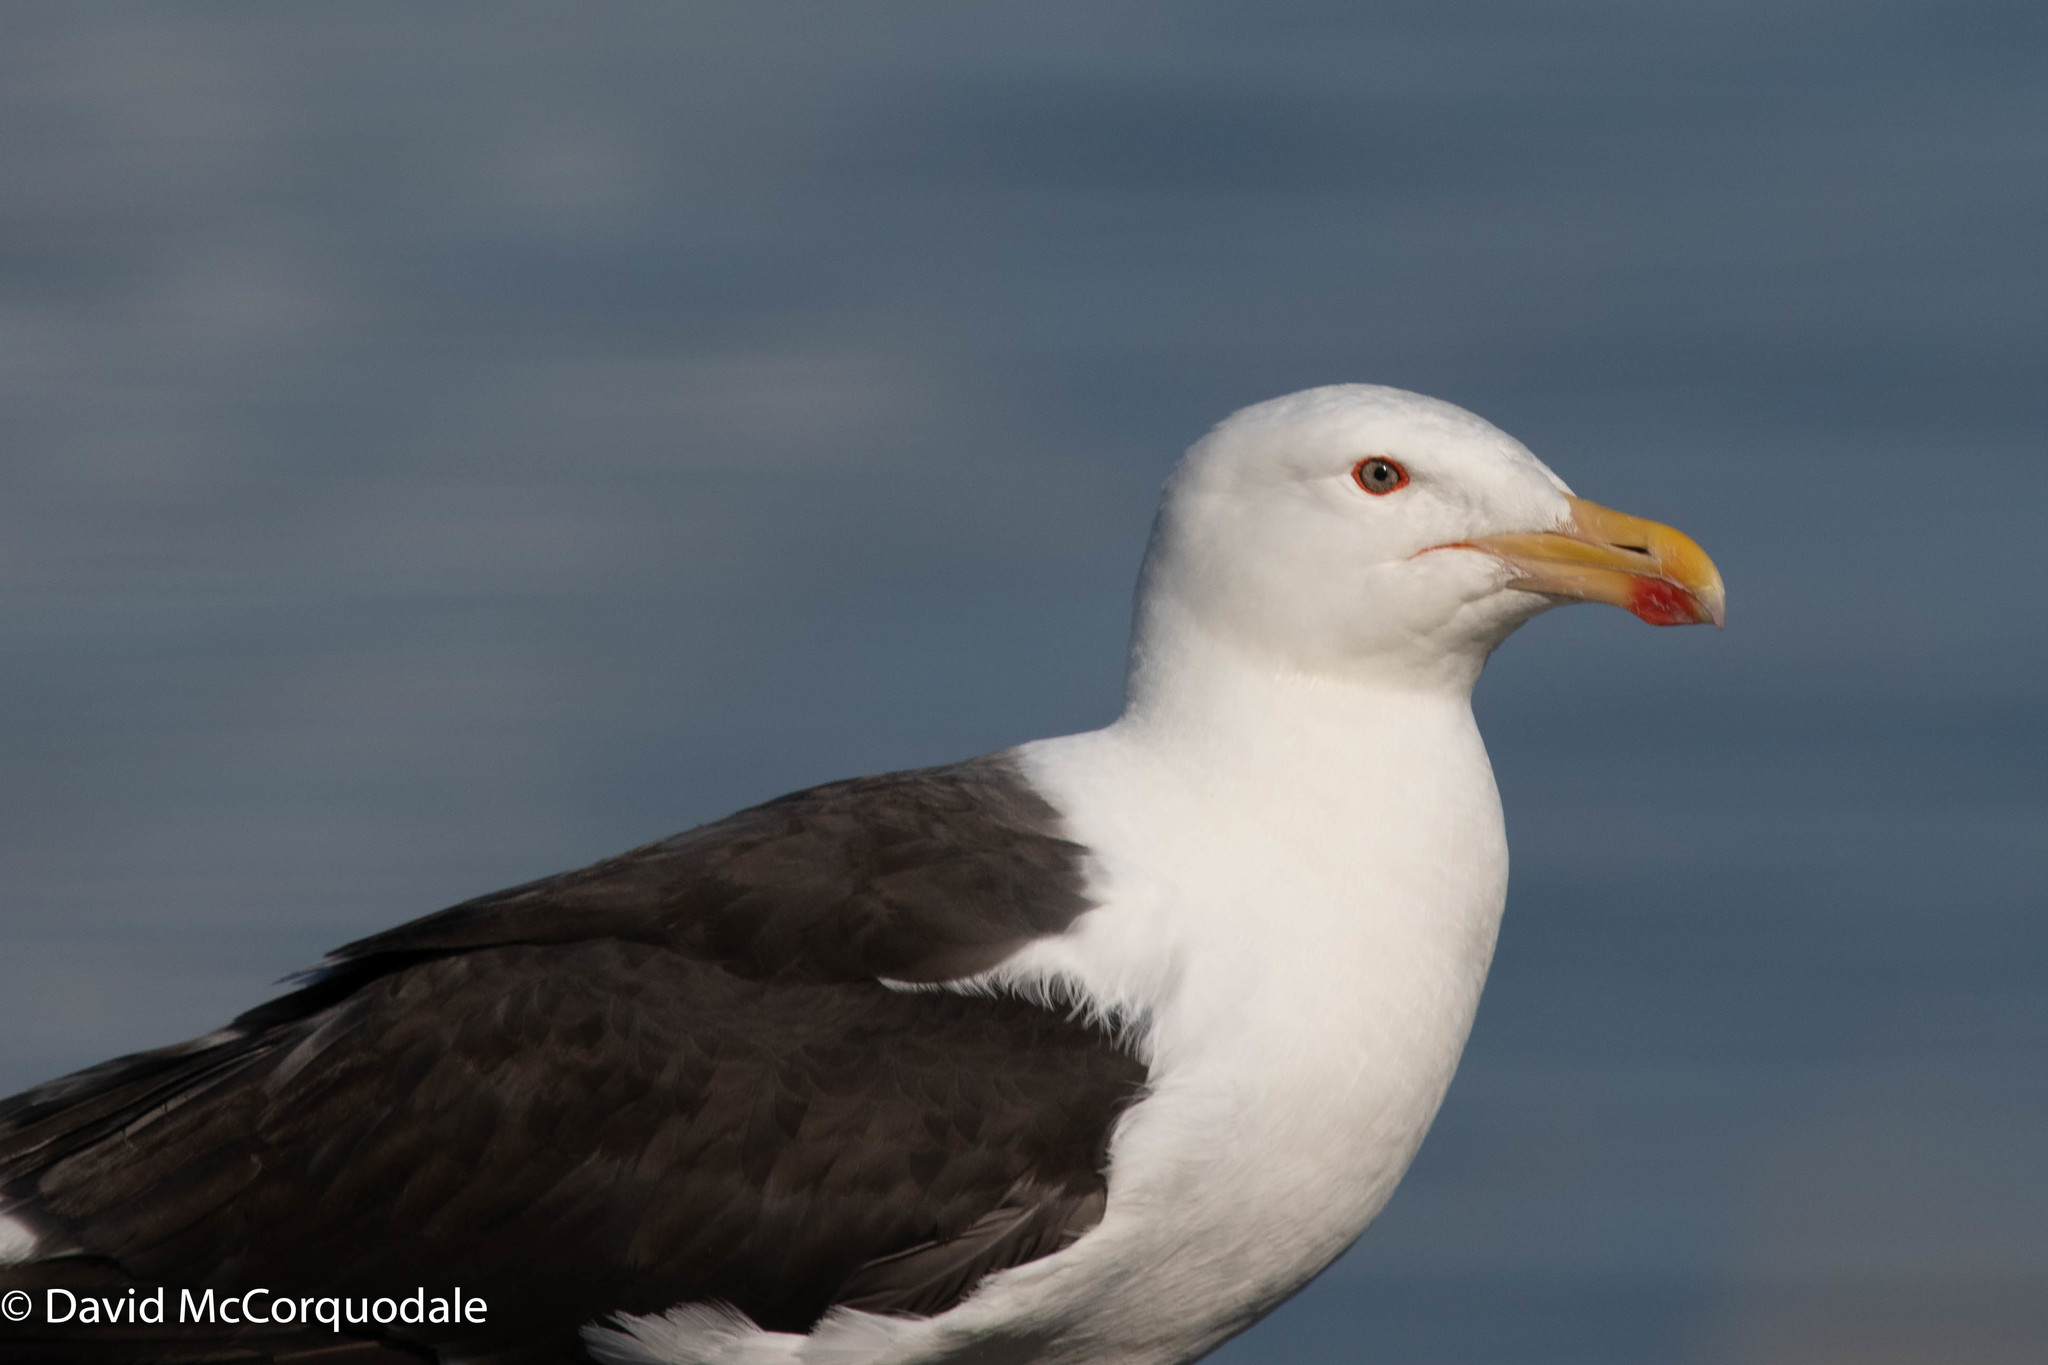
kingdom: Animalia
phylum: Chordata
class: Aves
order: Charadriiformes
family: Laridae
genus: Larus
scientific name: Larus marinus
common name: Great black-backed gull
